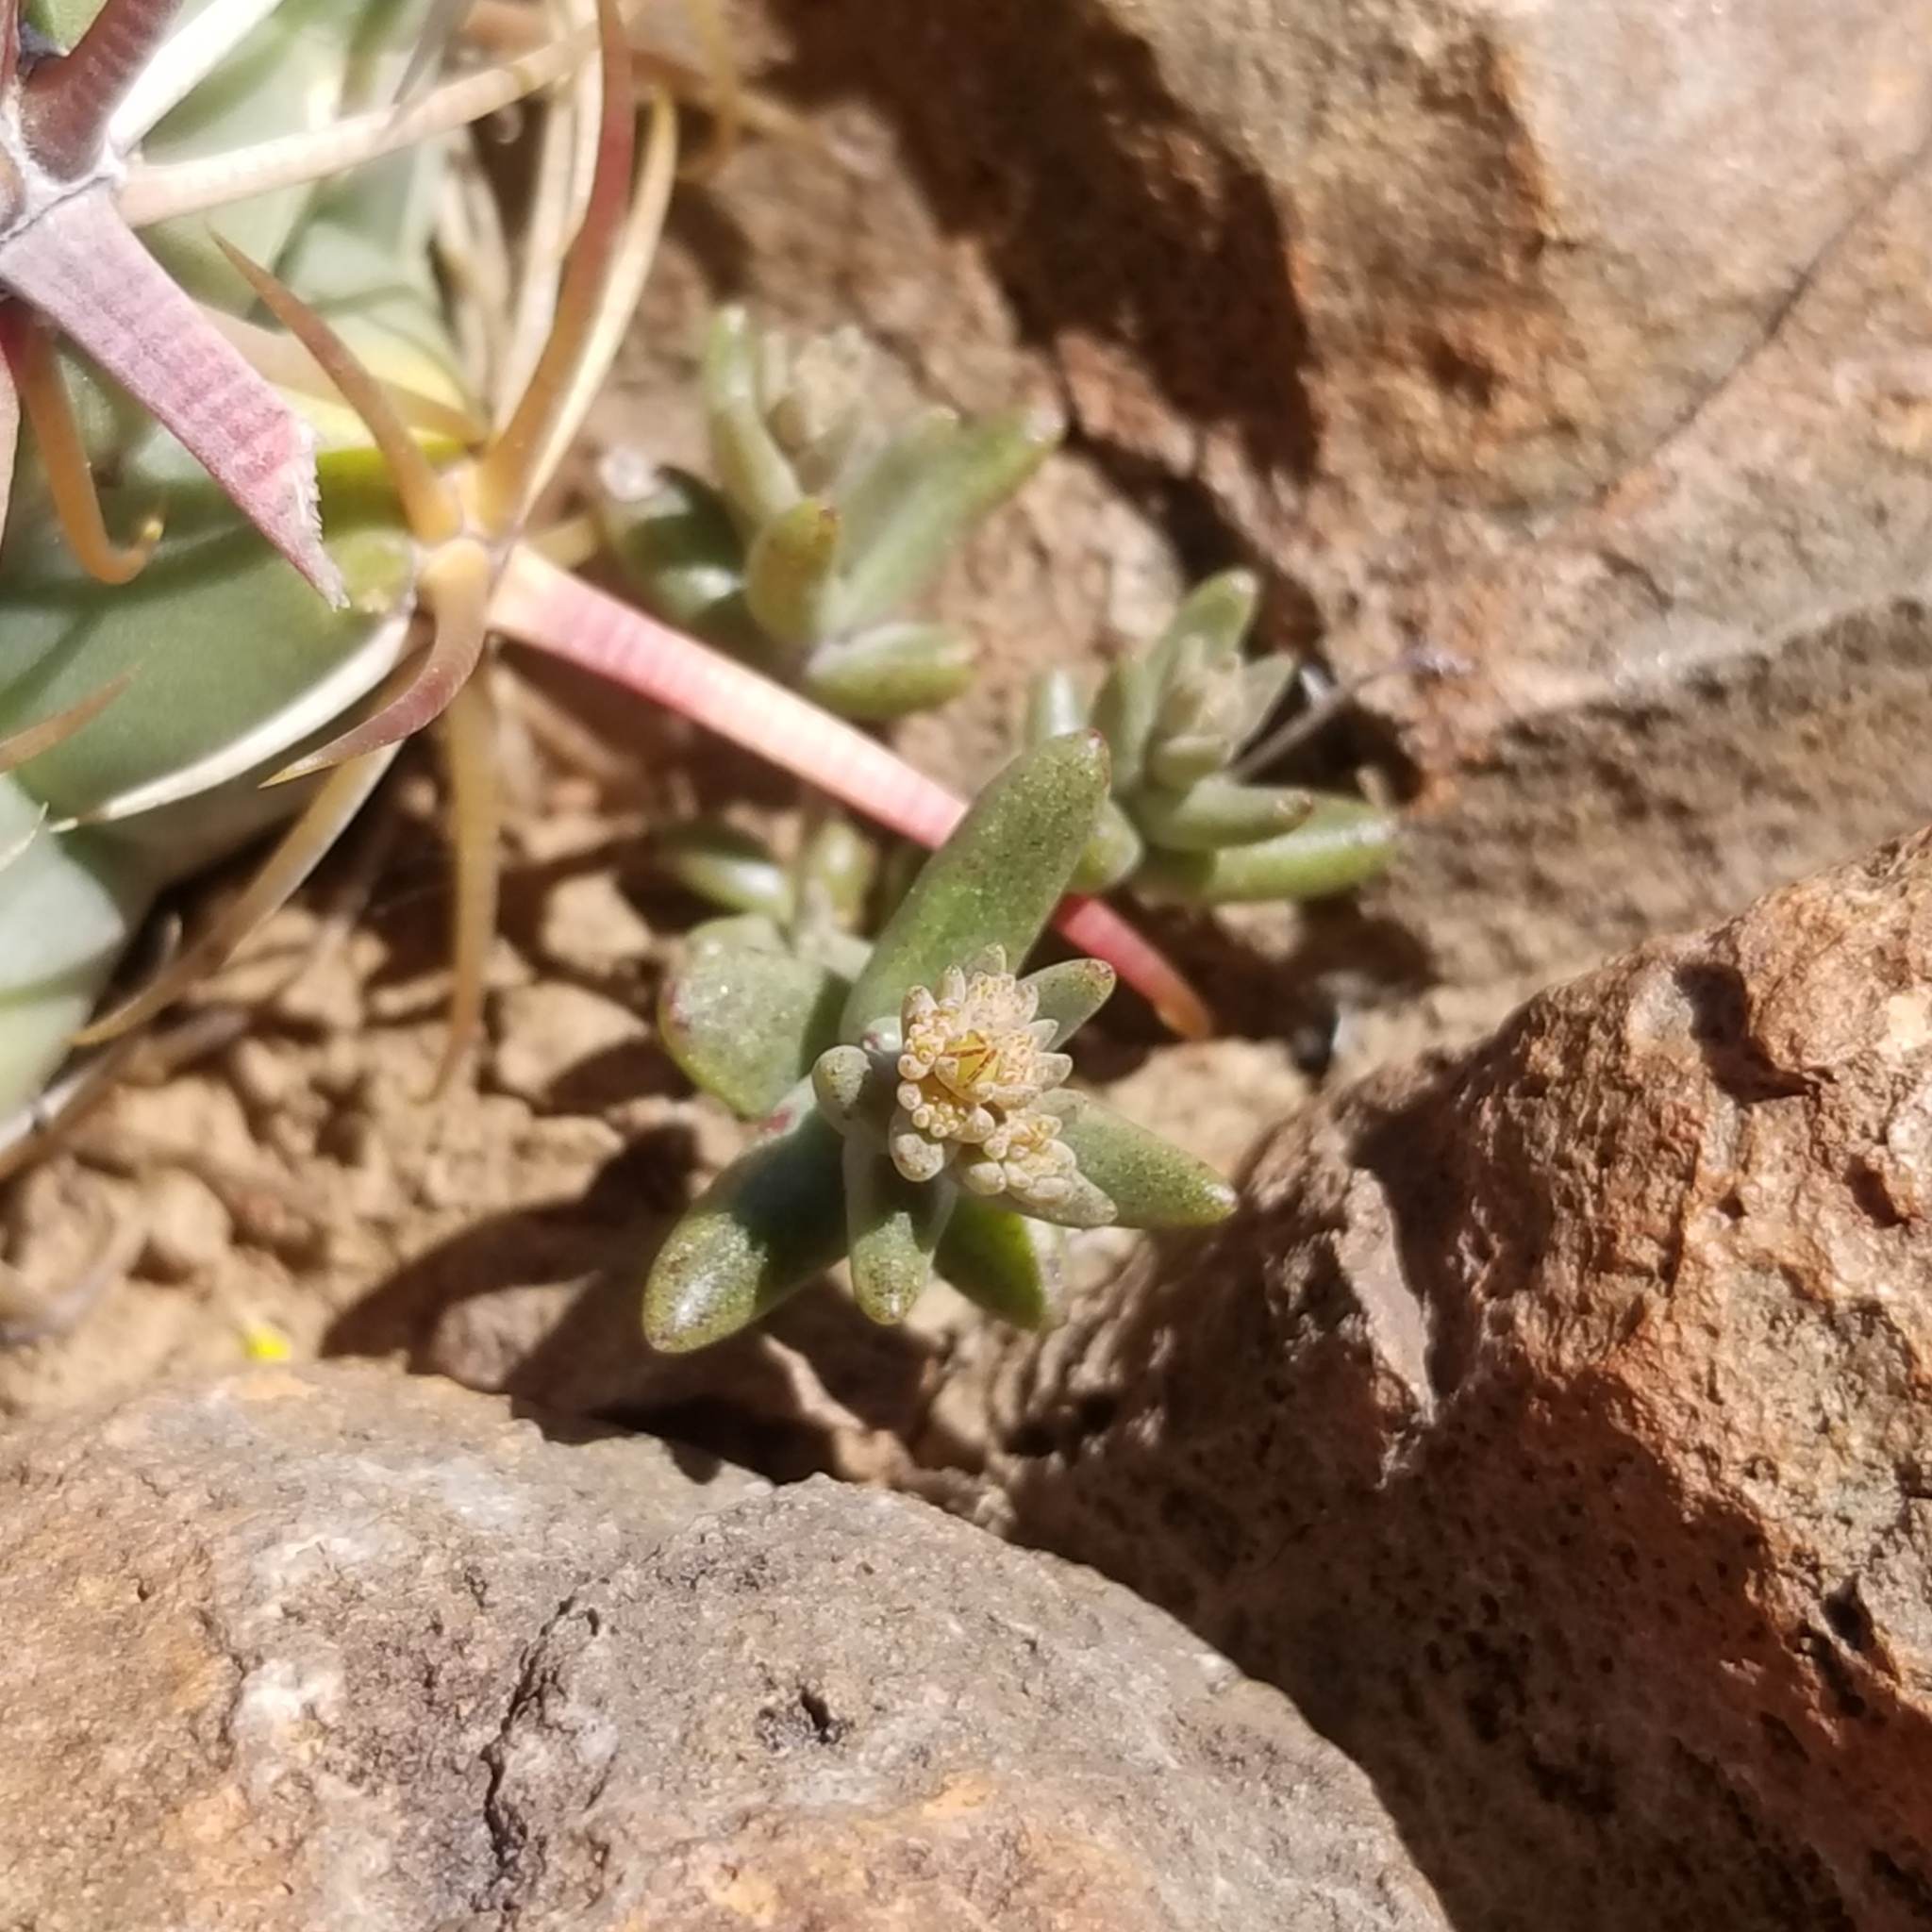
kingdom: Plantae
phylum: Tracheophyta
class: Magnoliopsida
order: Saxifragales
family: Crassulaceae
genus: Dudleya
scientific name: Dudleya variegata
